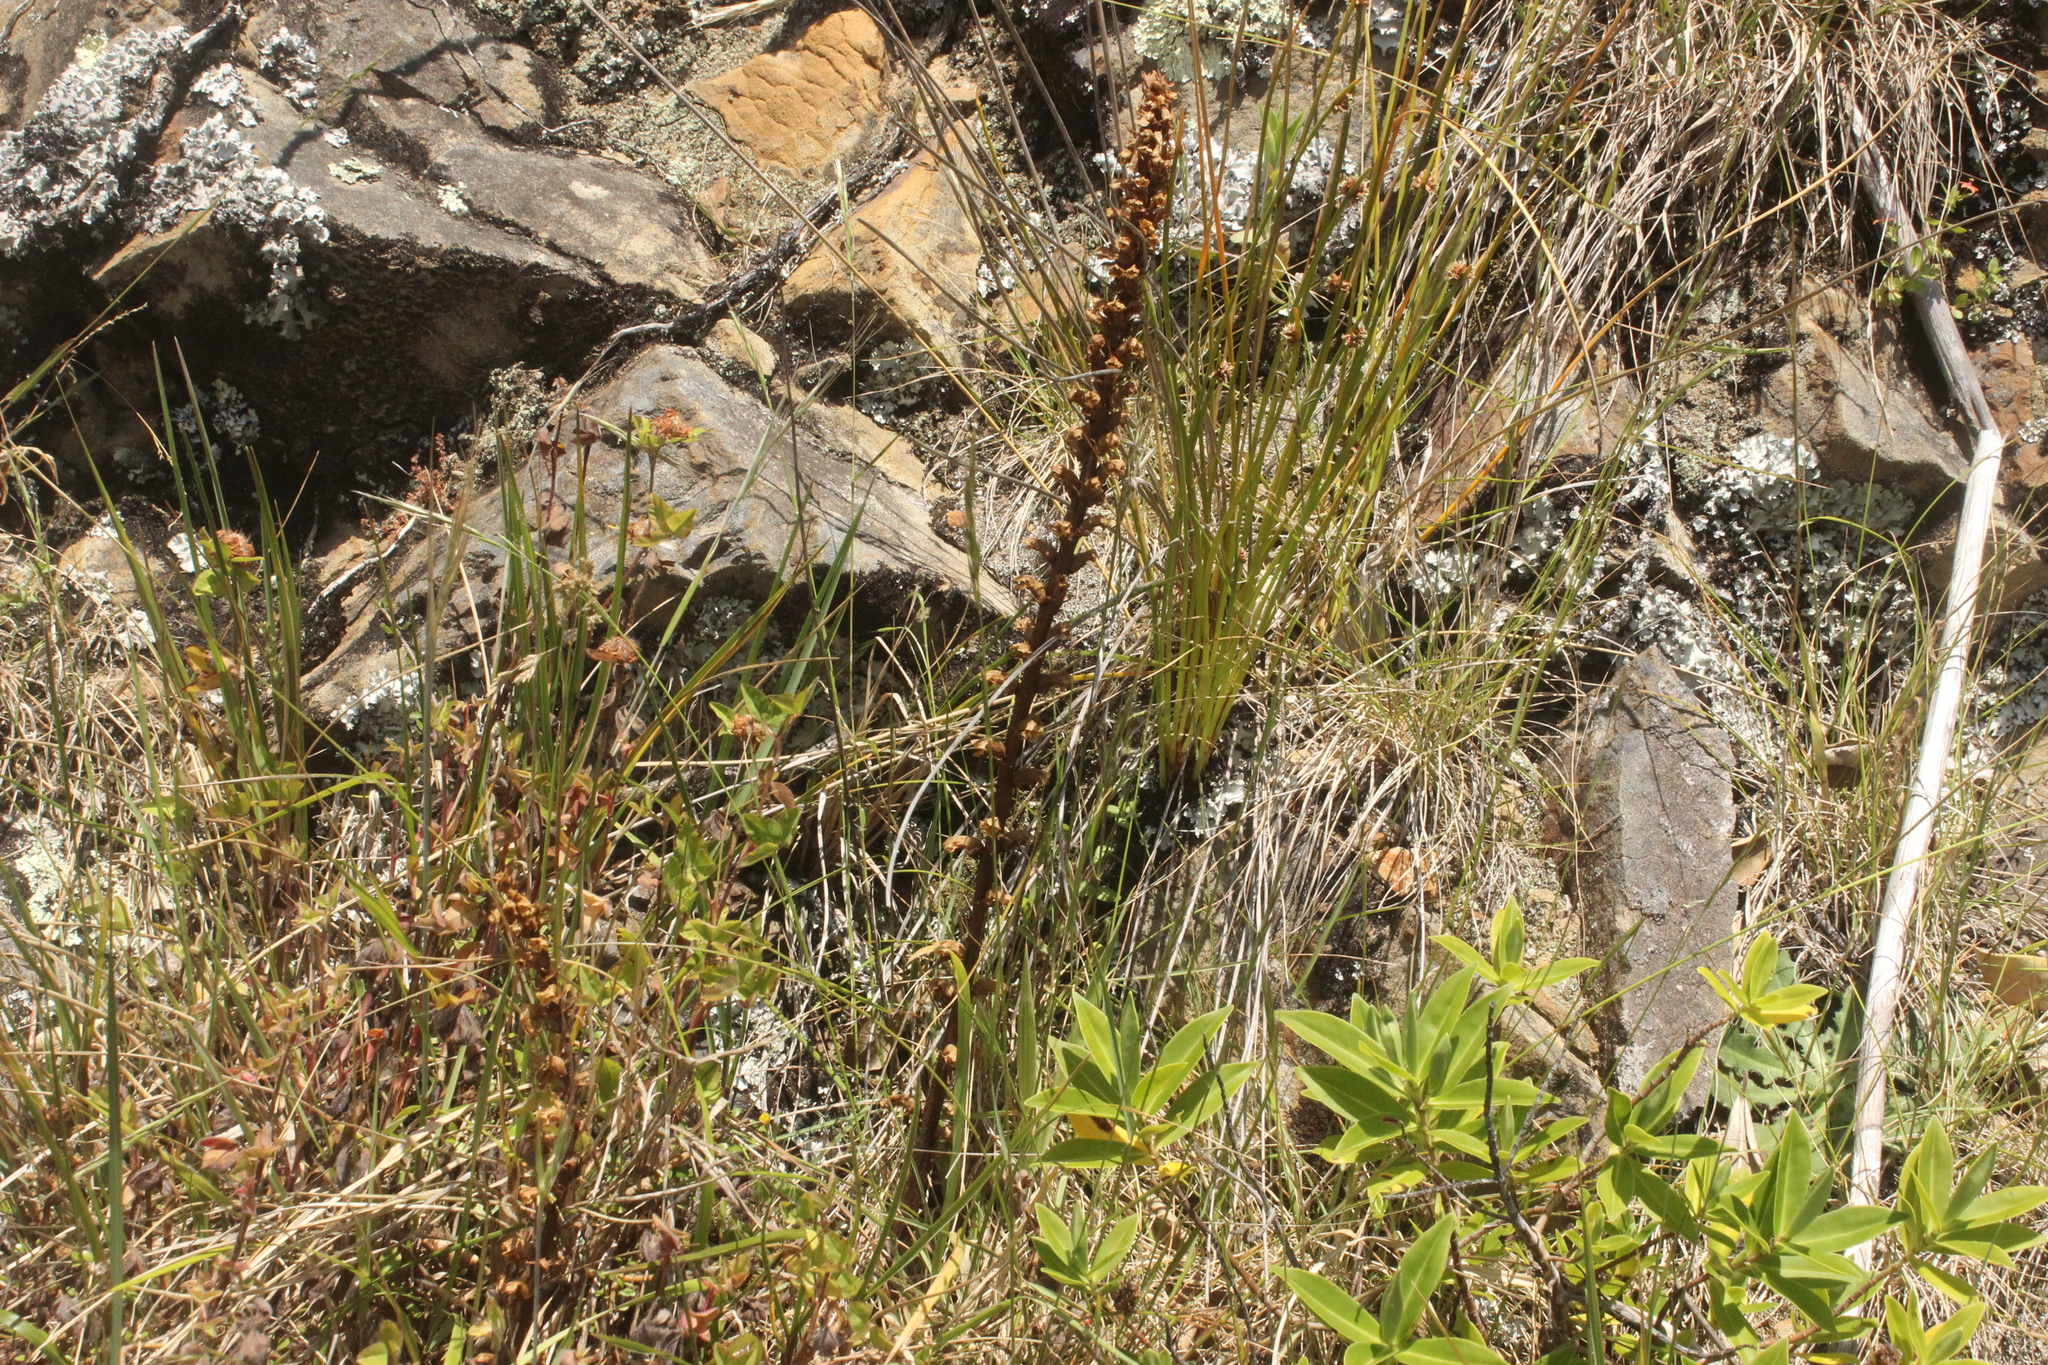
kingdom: Plantae
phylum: Tracheophyta
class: Magnoliopsida
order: Lamiales
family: Orobanchaceae
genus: Orobanche
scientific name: Orobanche minor
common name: Common broomrape
